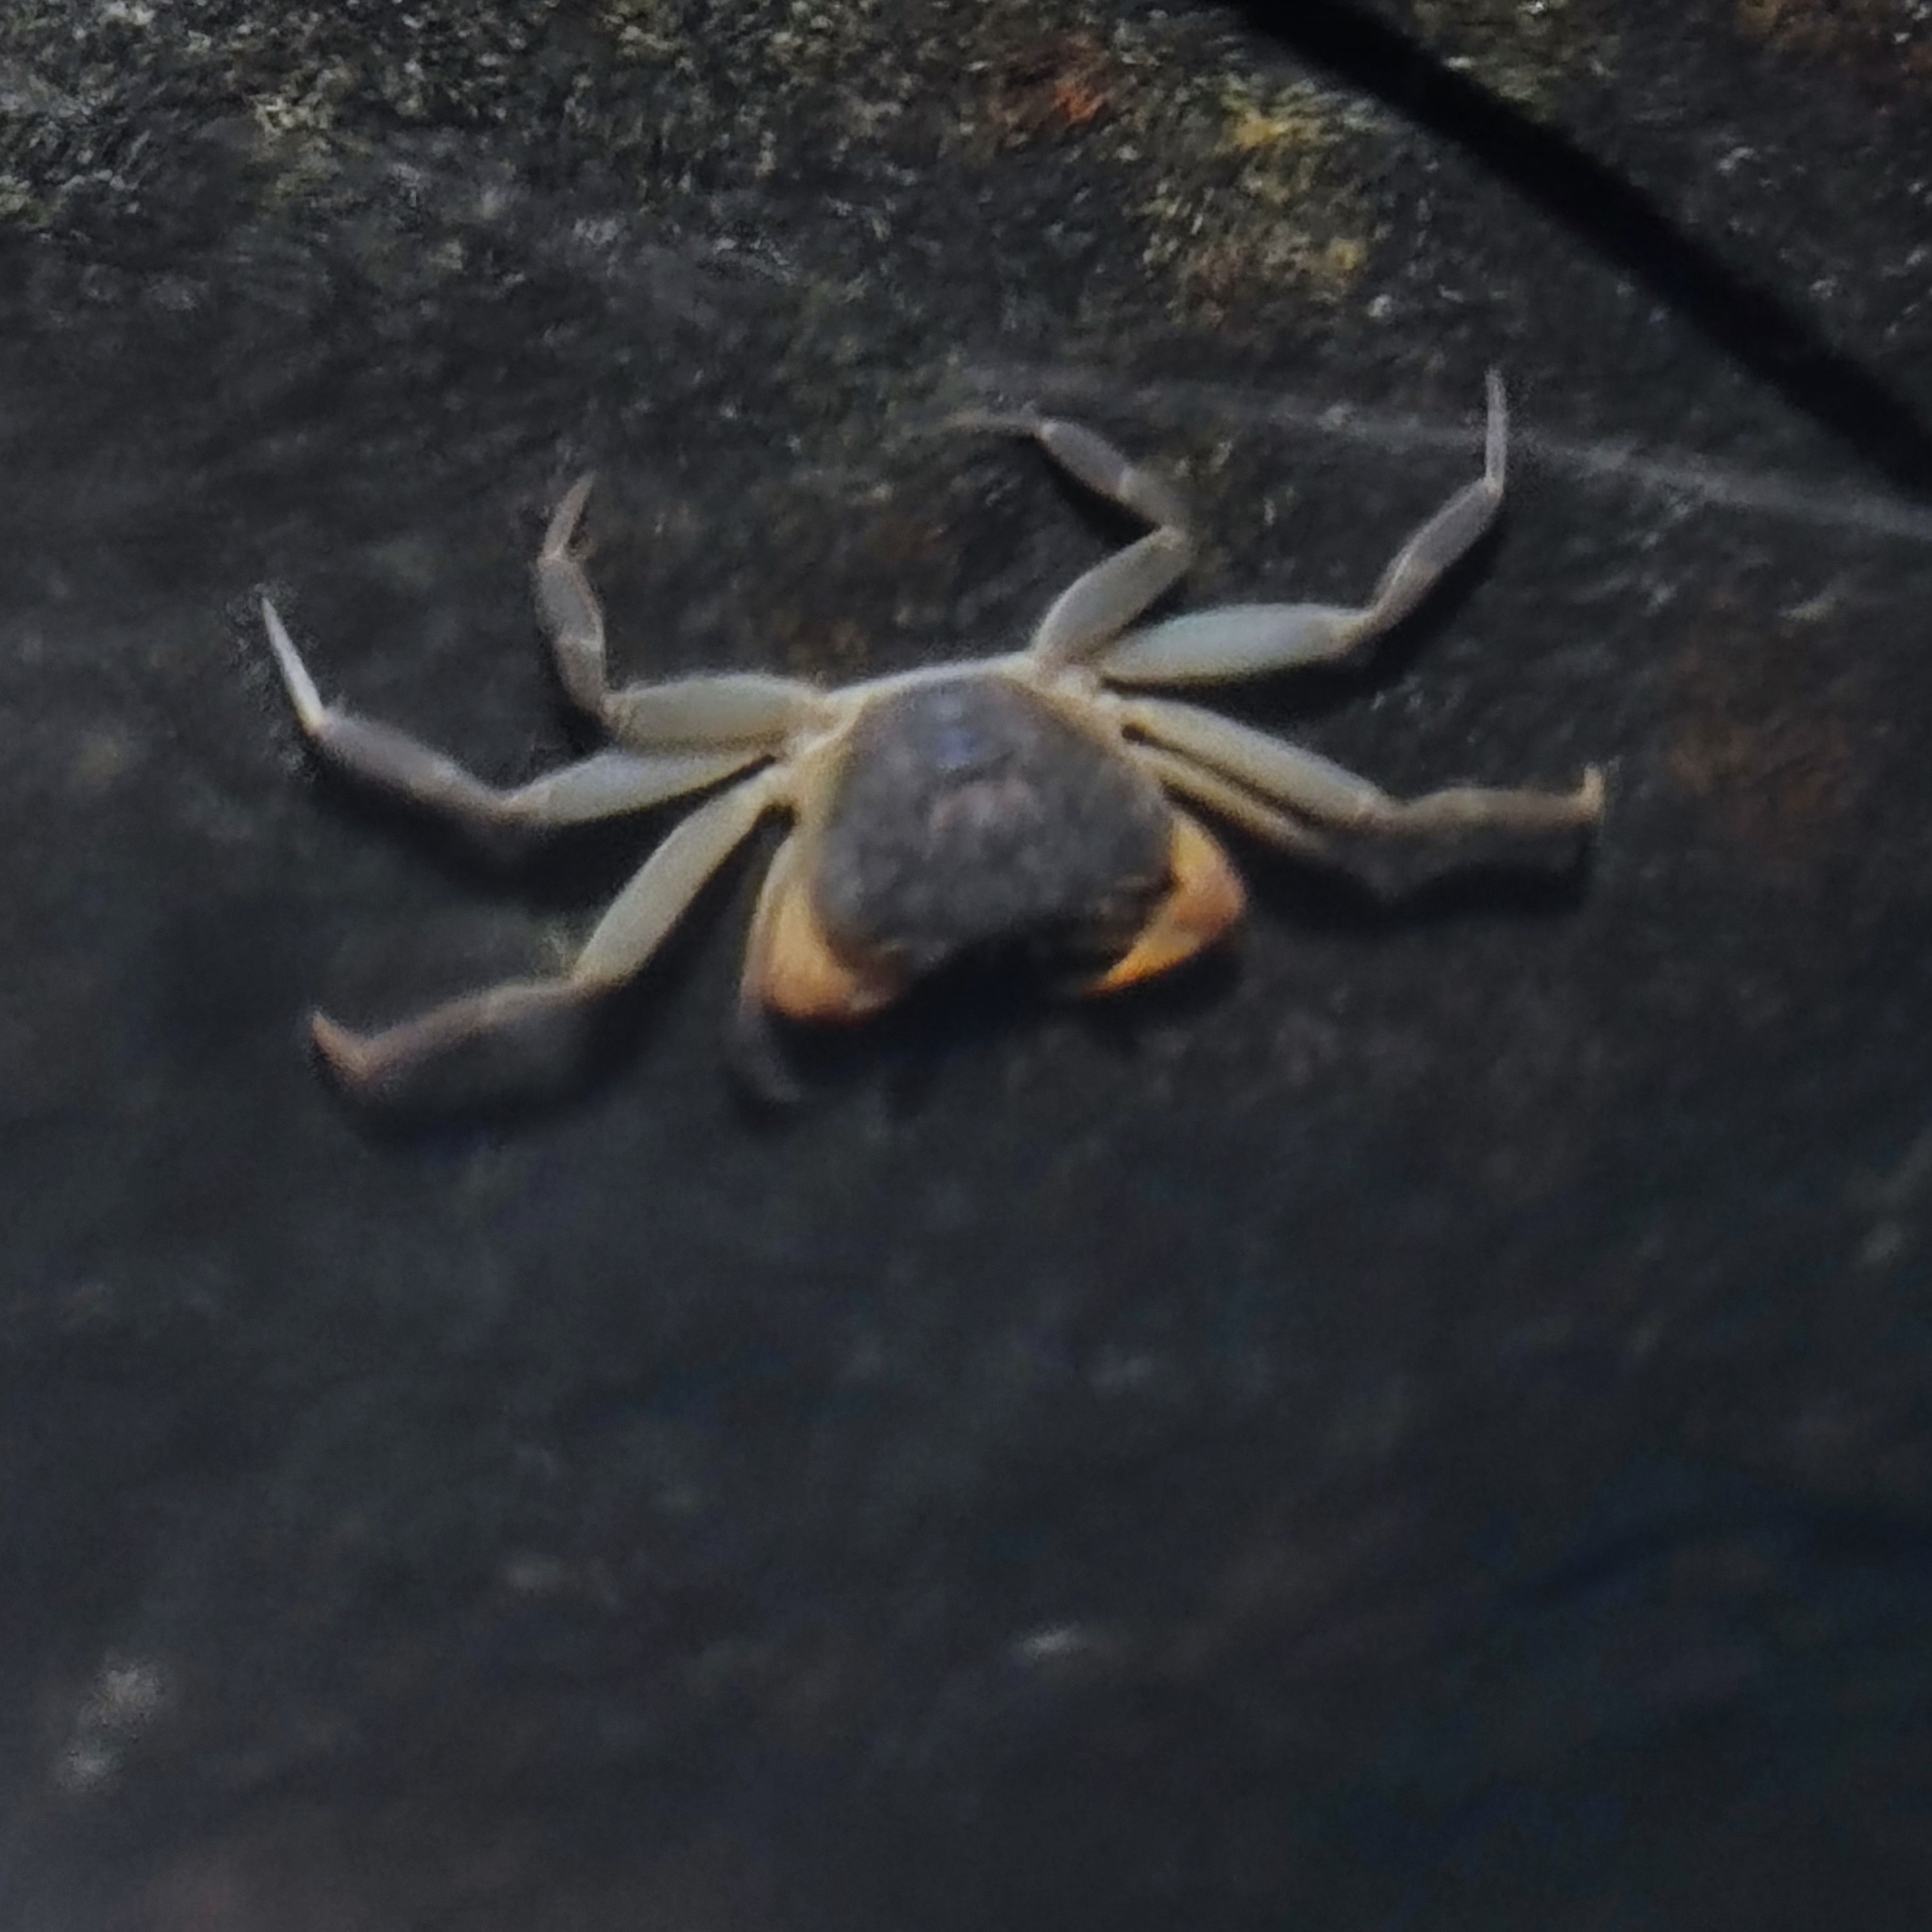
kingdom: Animalia
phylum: Arthropoda
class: Malacostraca
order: Decapoda
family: Potamidae
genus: Dromothelphusa
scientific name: Dromothelphusa longipes
